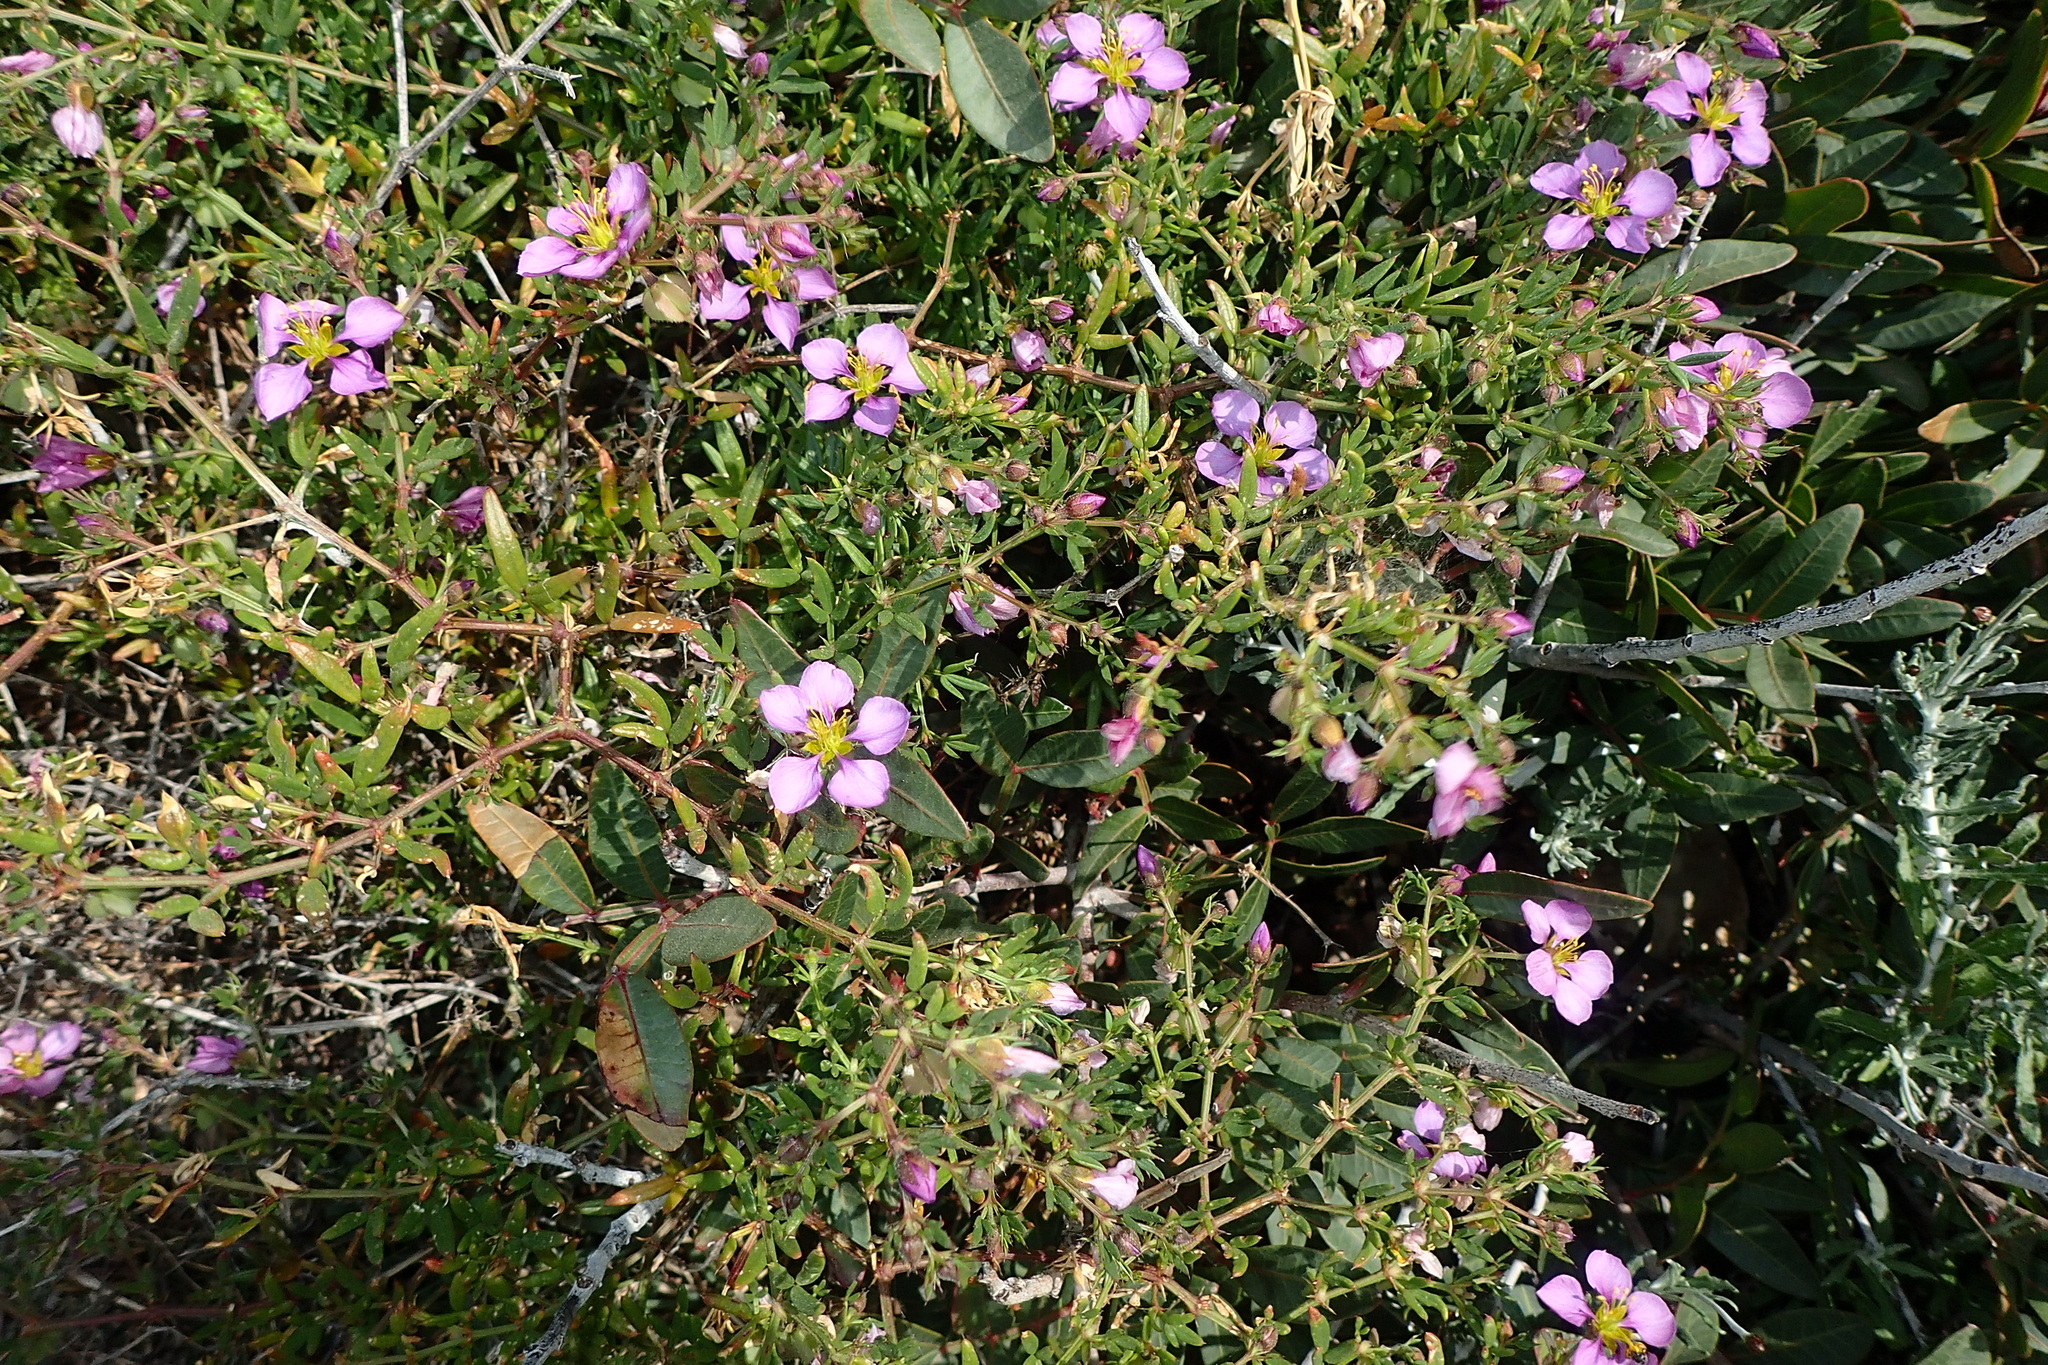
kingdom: Plantae
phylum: Tracheophyta
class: Magnoliopsida
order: Zygophyllales
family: Zygophyllaceae
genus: Fagonia
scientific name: Fagonia cretica
